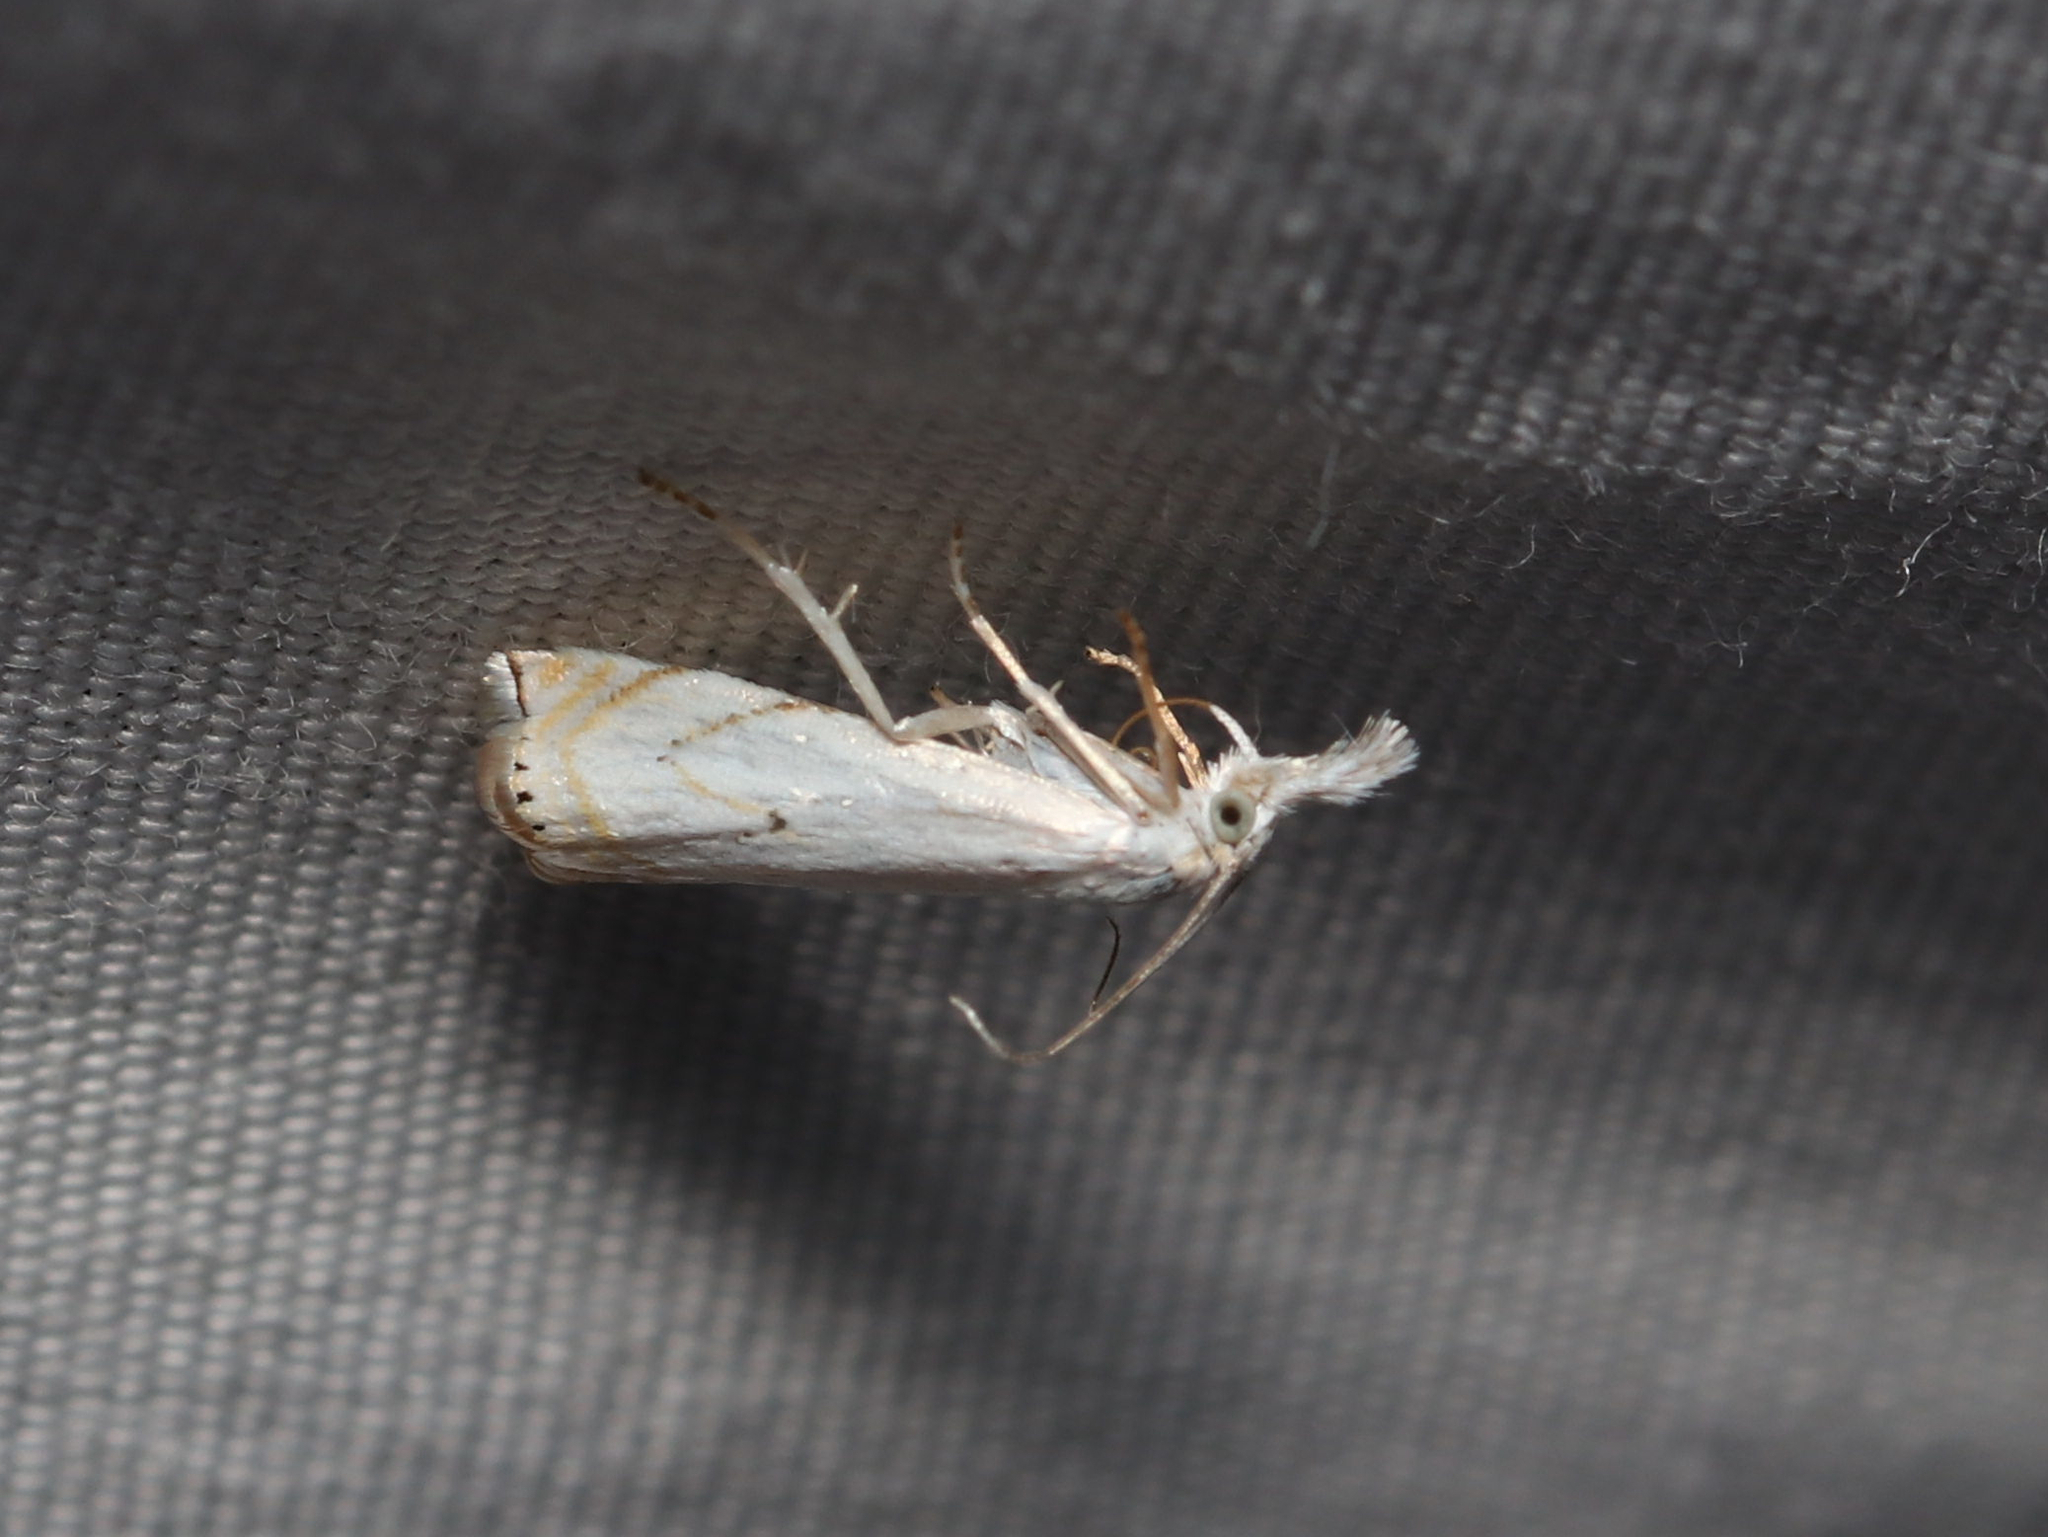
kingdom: Animalia
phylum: Arthropoda
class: Insecta
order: Lepidoptera
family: Crambidae
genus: Crambus
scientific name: Crambus albellus
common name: Small white grass-veneer
